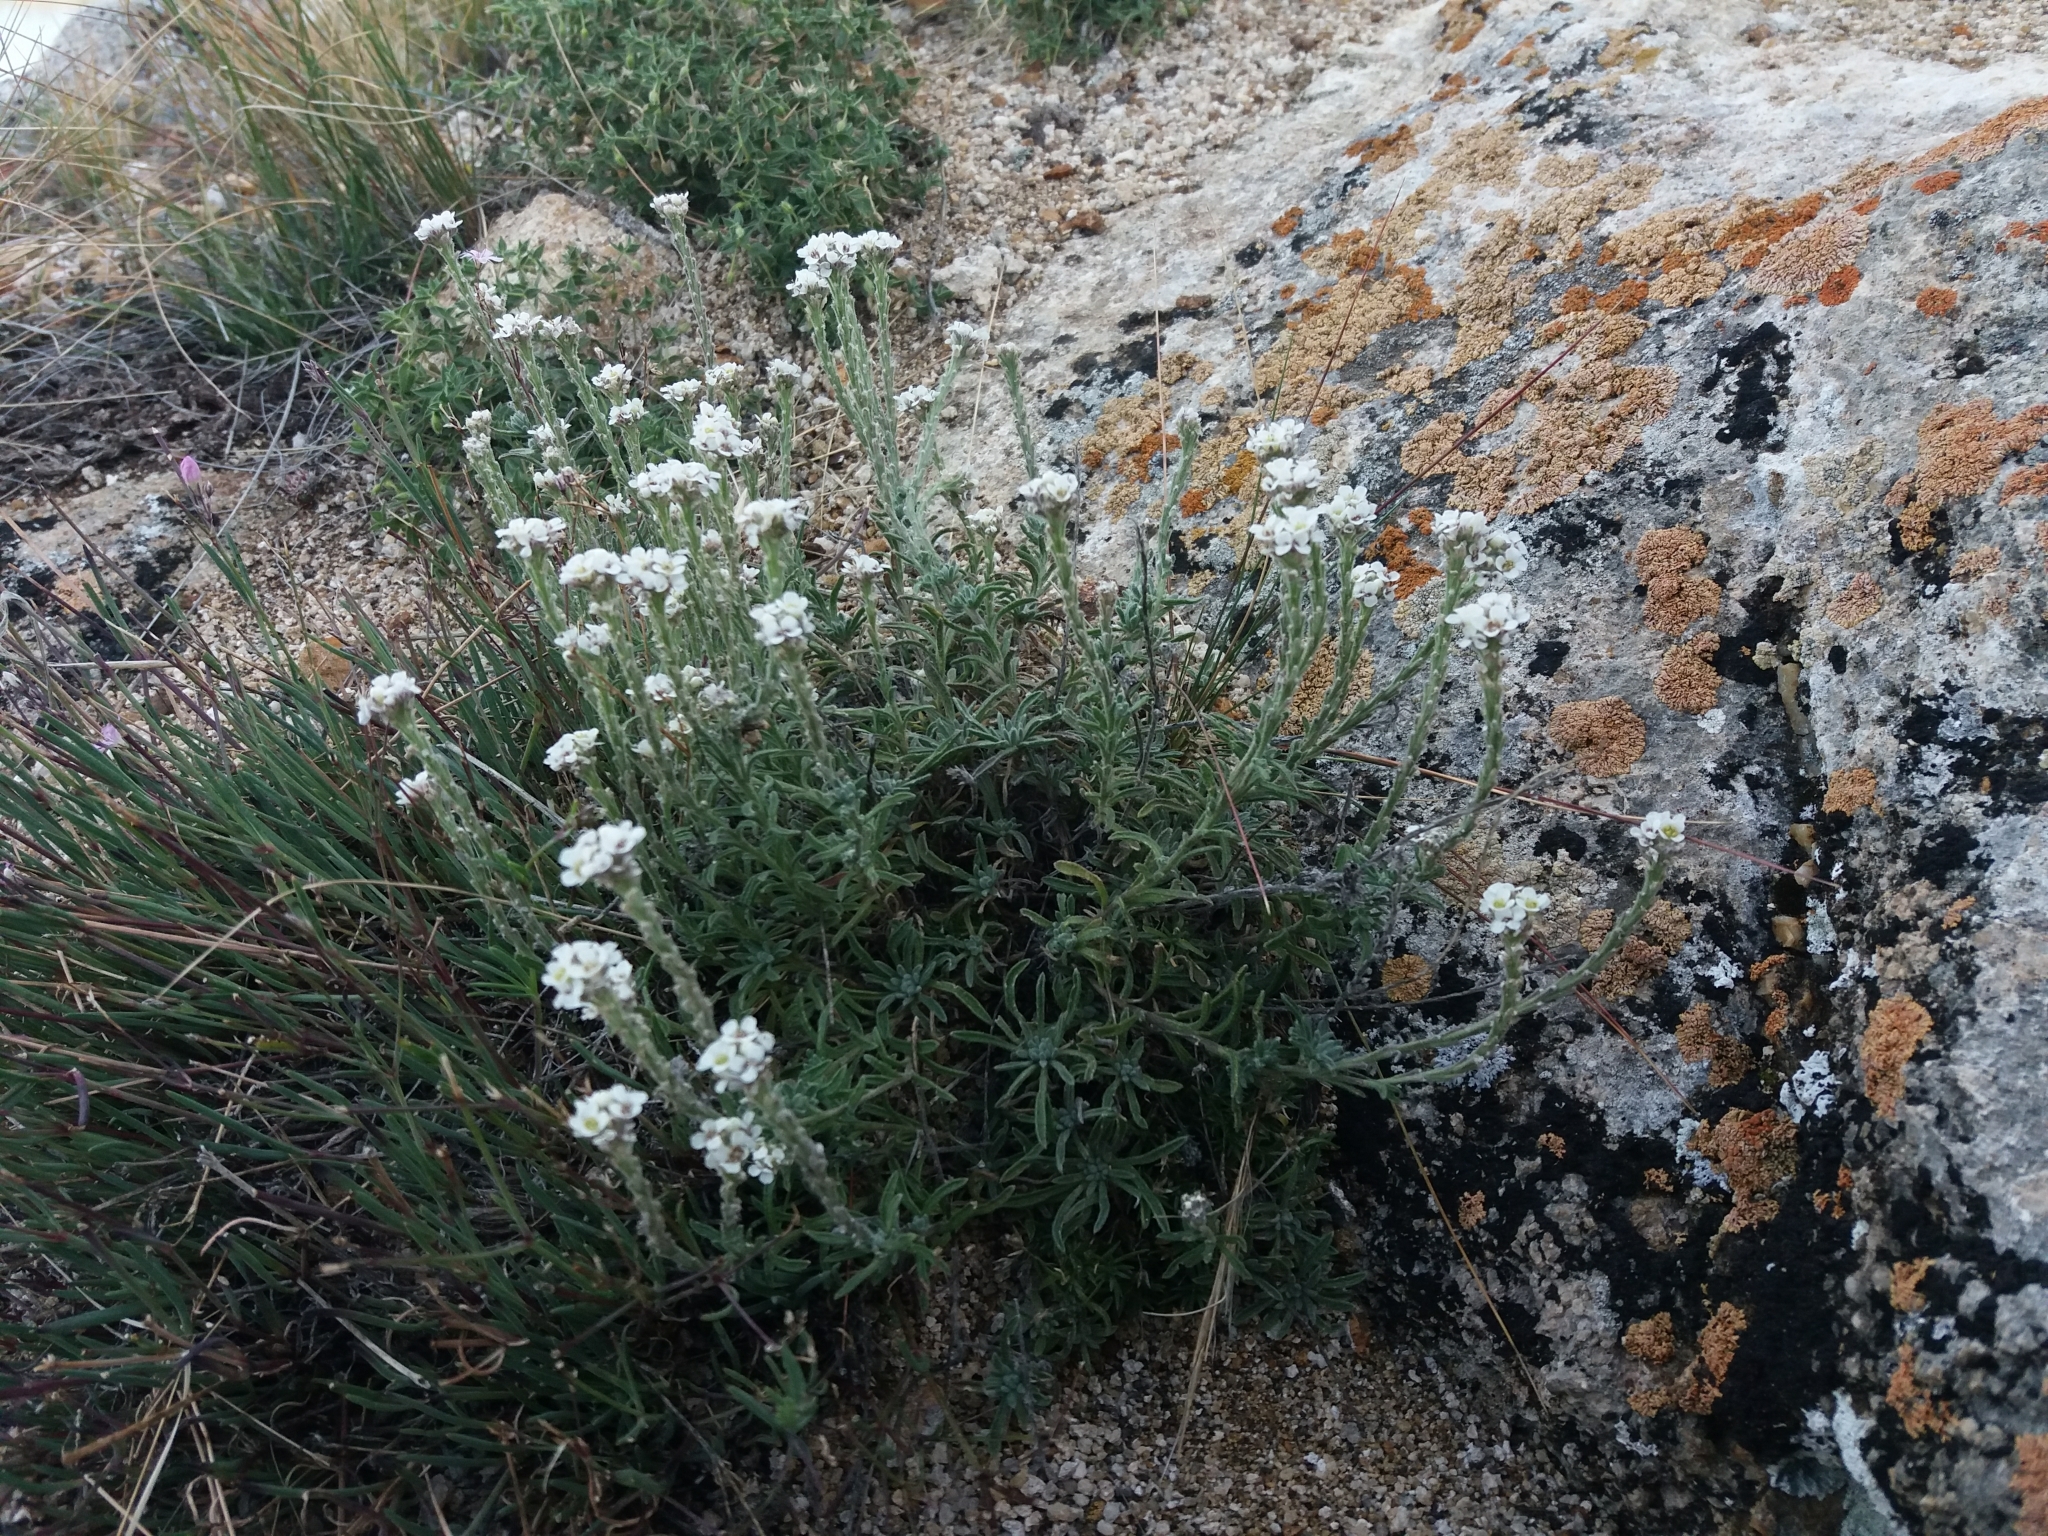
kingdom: Plantae
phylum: Tracheophyta
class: Magnoliopsida
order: Brassicales
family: Brassicaceae
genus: Stevenia
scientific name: Stevenia tenuifolia
